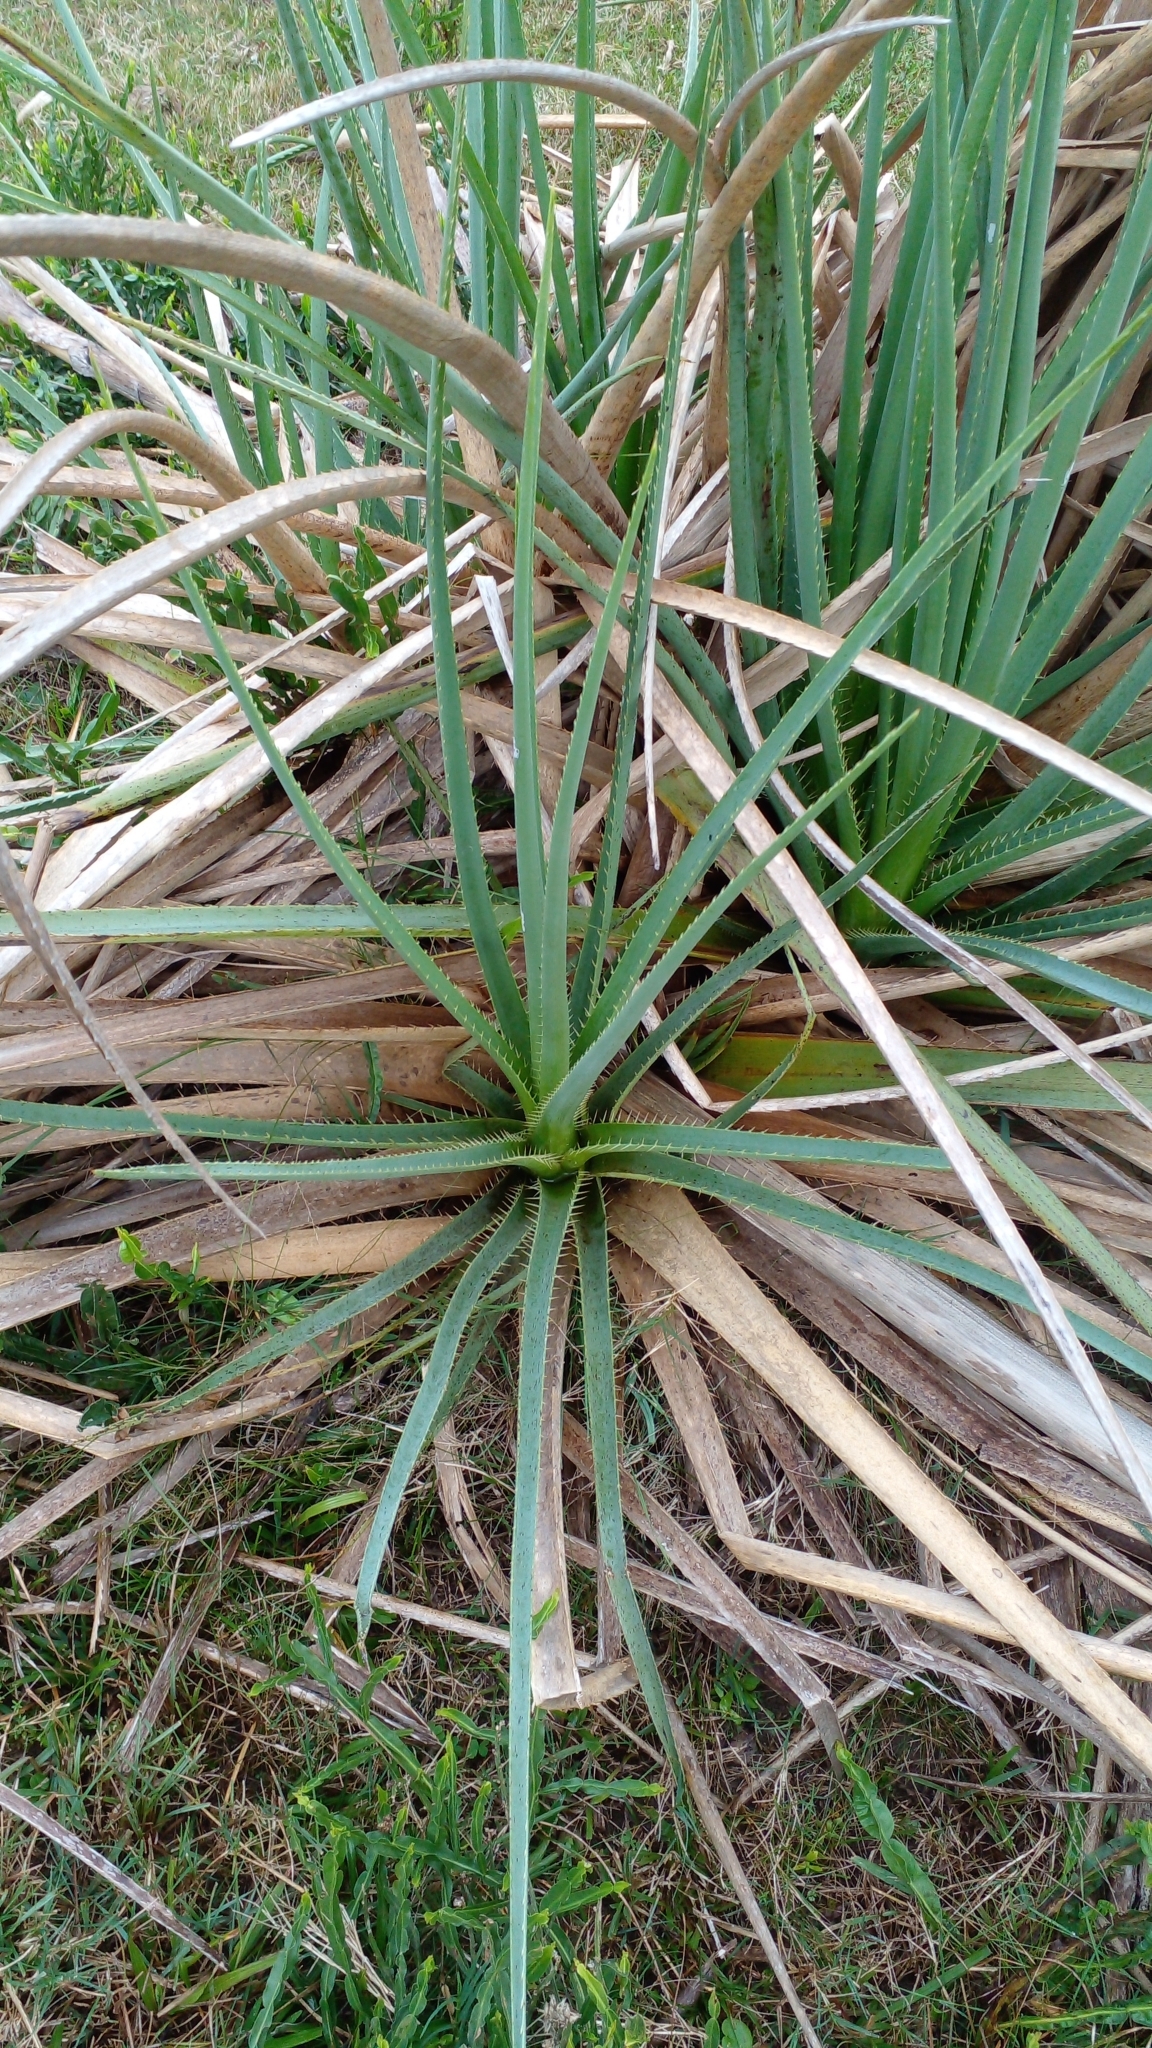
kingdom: Plantae
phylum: Tracheophyta
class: Magnoliopsida
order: Apiales
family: Apiaceae
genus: Eryngium
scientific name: Eryngium pandanifolium
